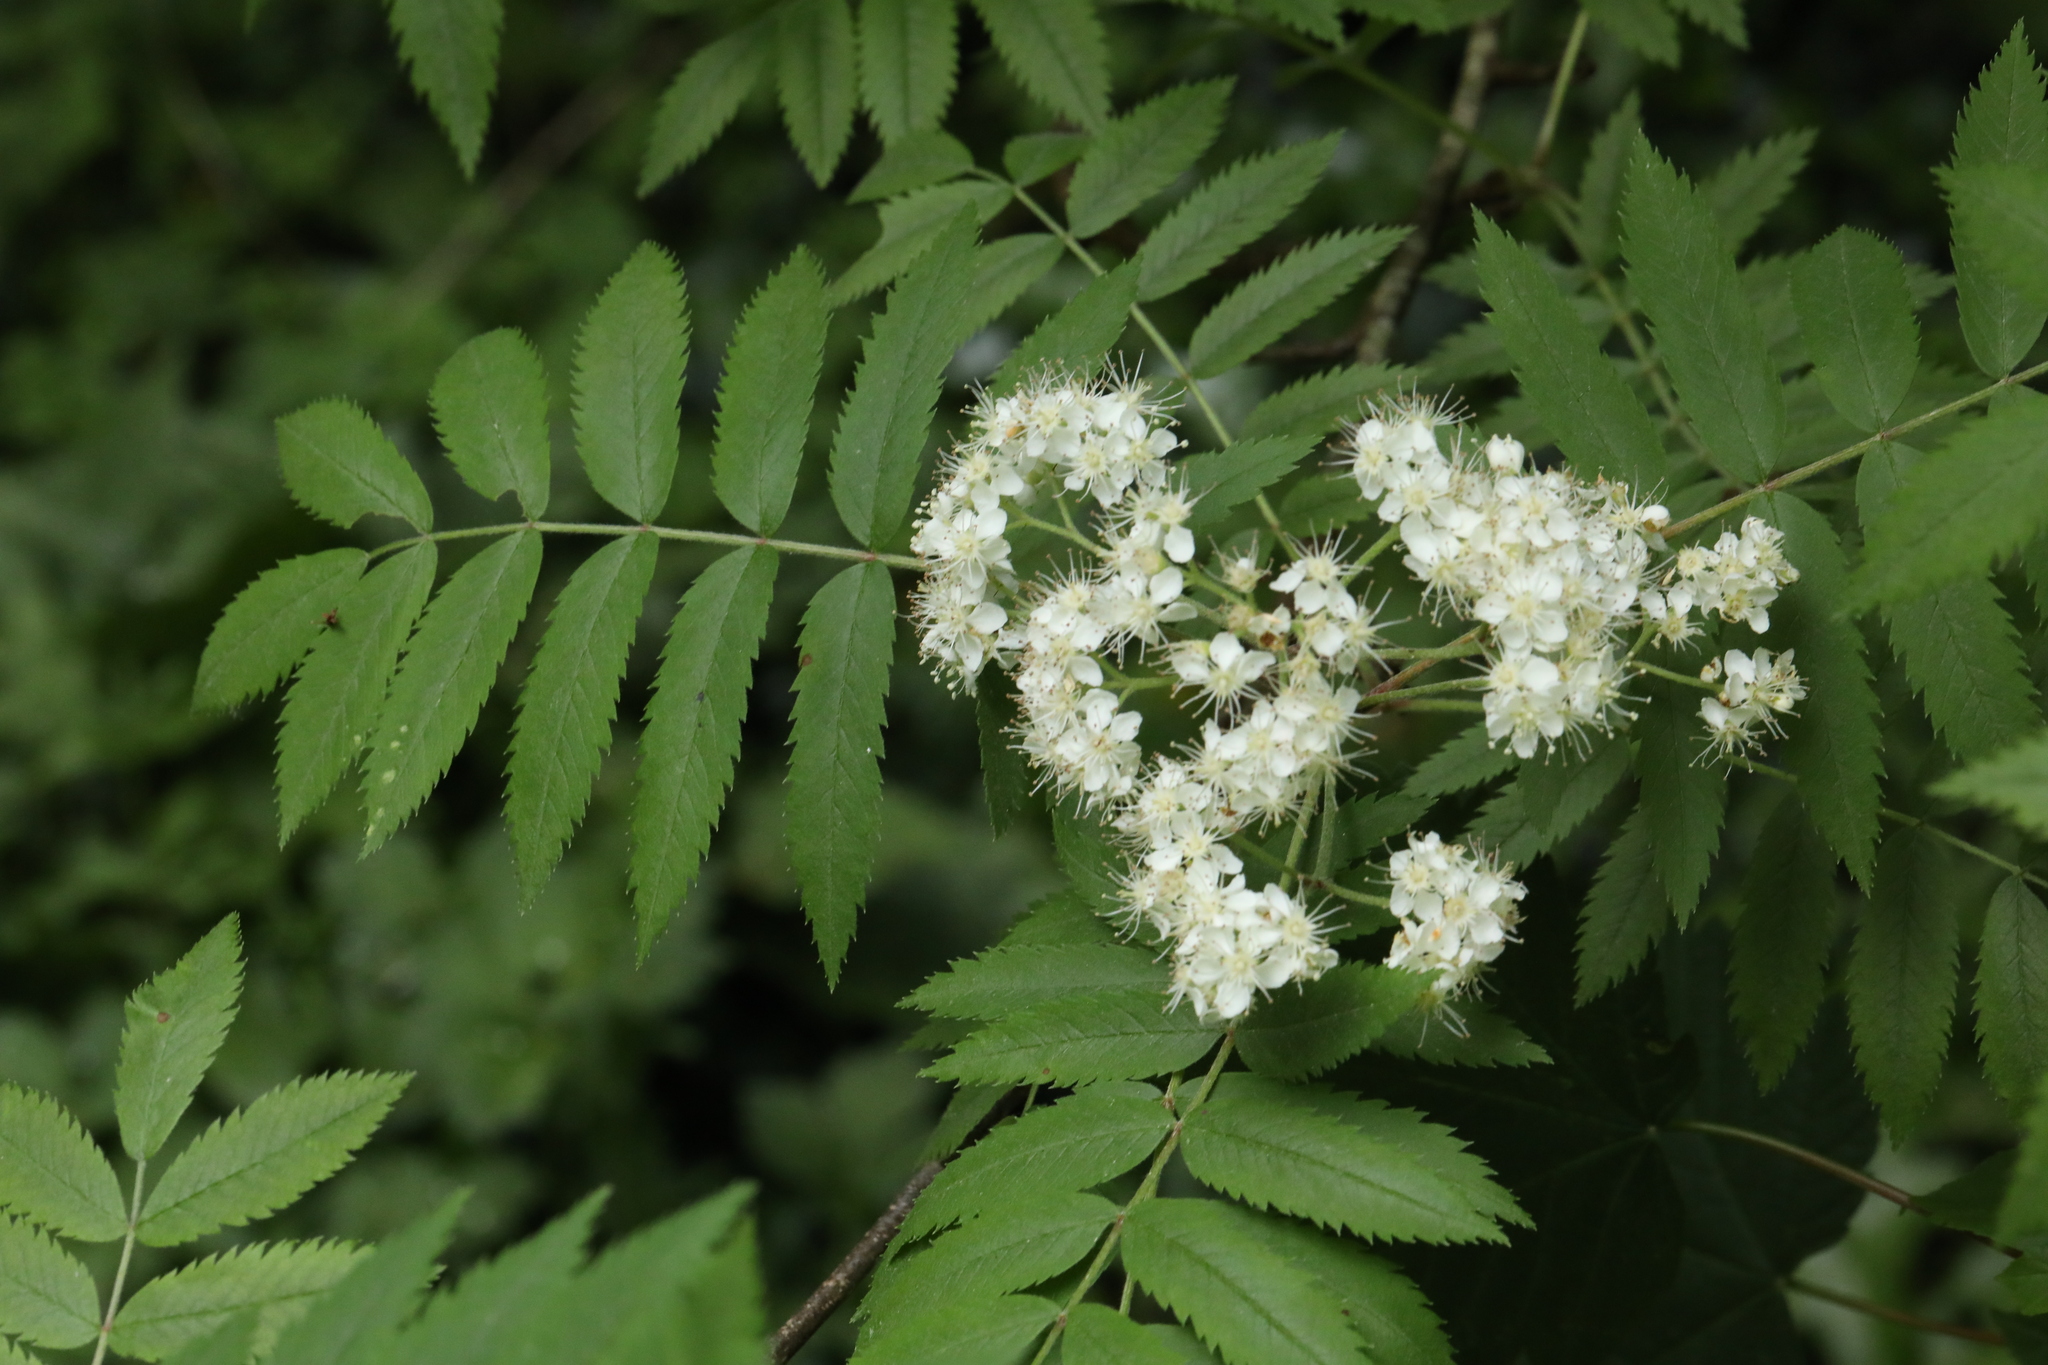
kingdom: Plantae
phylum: Tracheophyta
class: Magnoliopsida
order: Rosales
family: Rosaceae
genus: Sorbus
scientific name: Sorbus aucuparia
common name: Rowan
